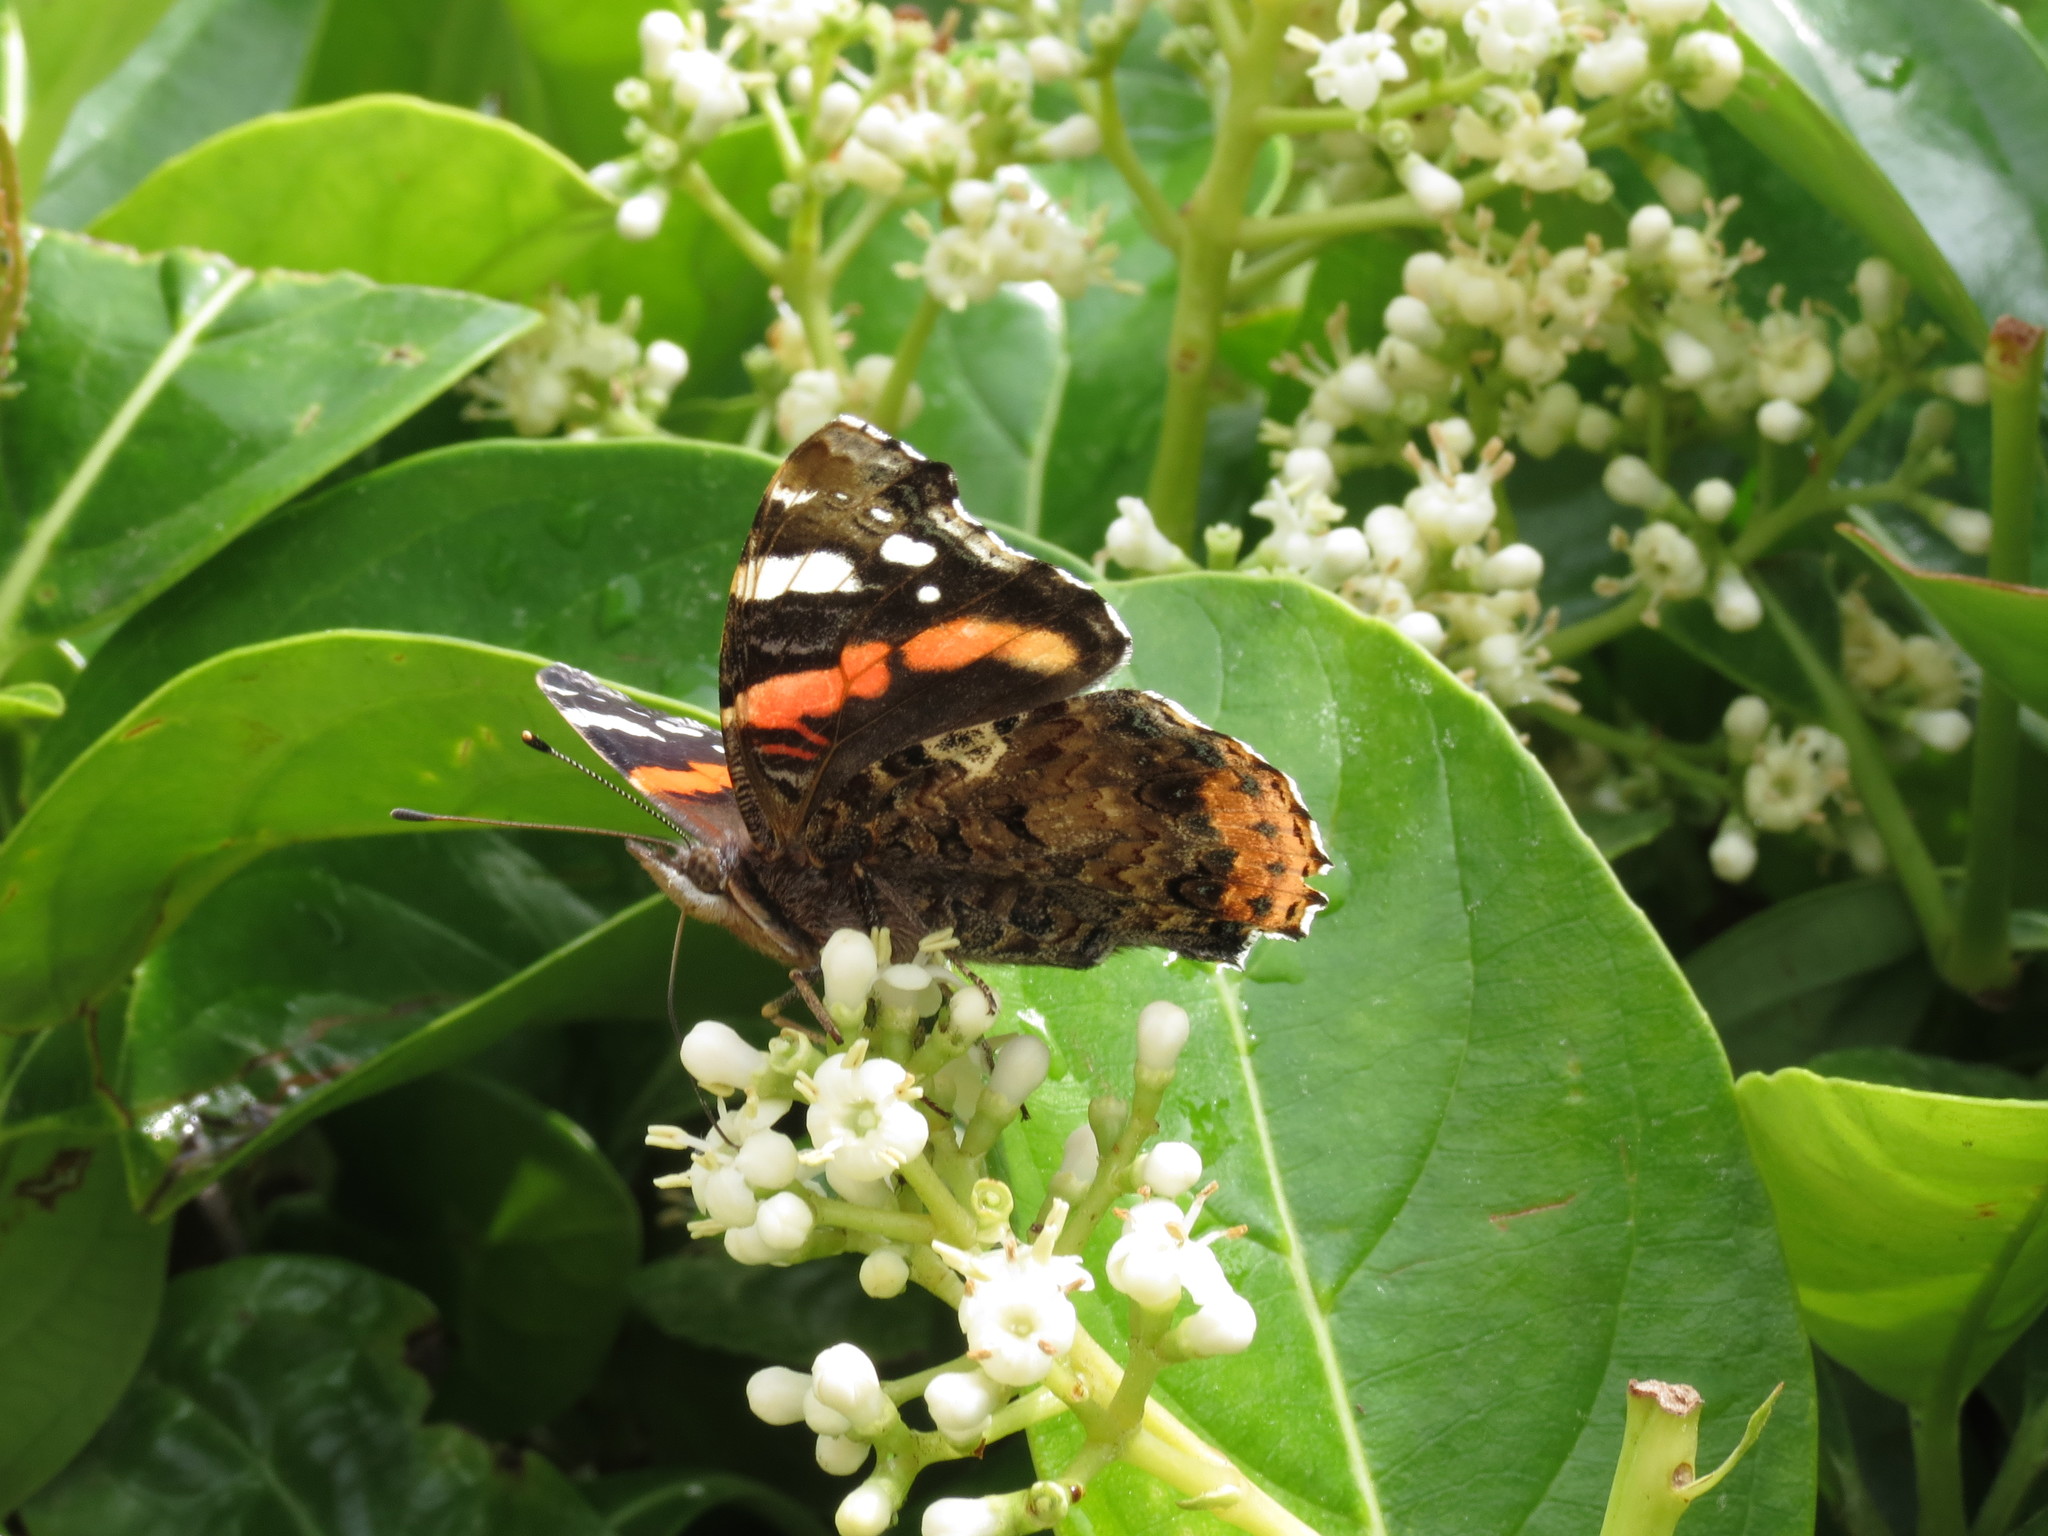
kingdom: Animalia
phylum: Arthropoda
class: Insecta
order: Lepidoptera
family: Nymphalidae
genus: Vanessa
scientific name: Vanessa atalanta
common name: Red admiral
